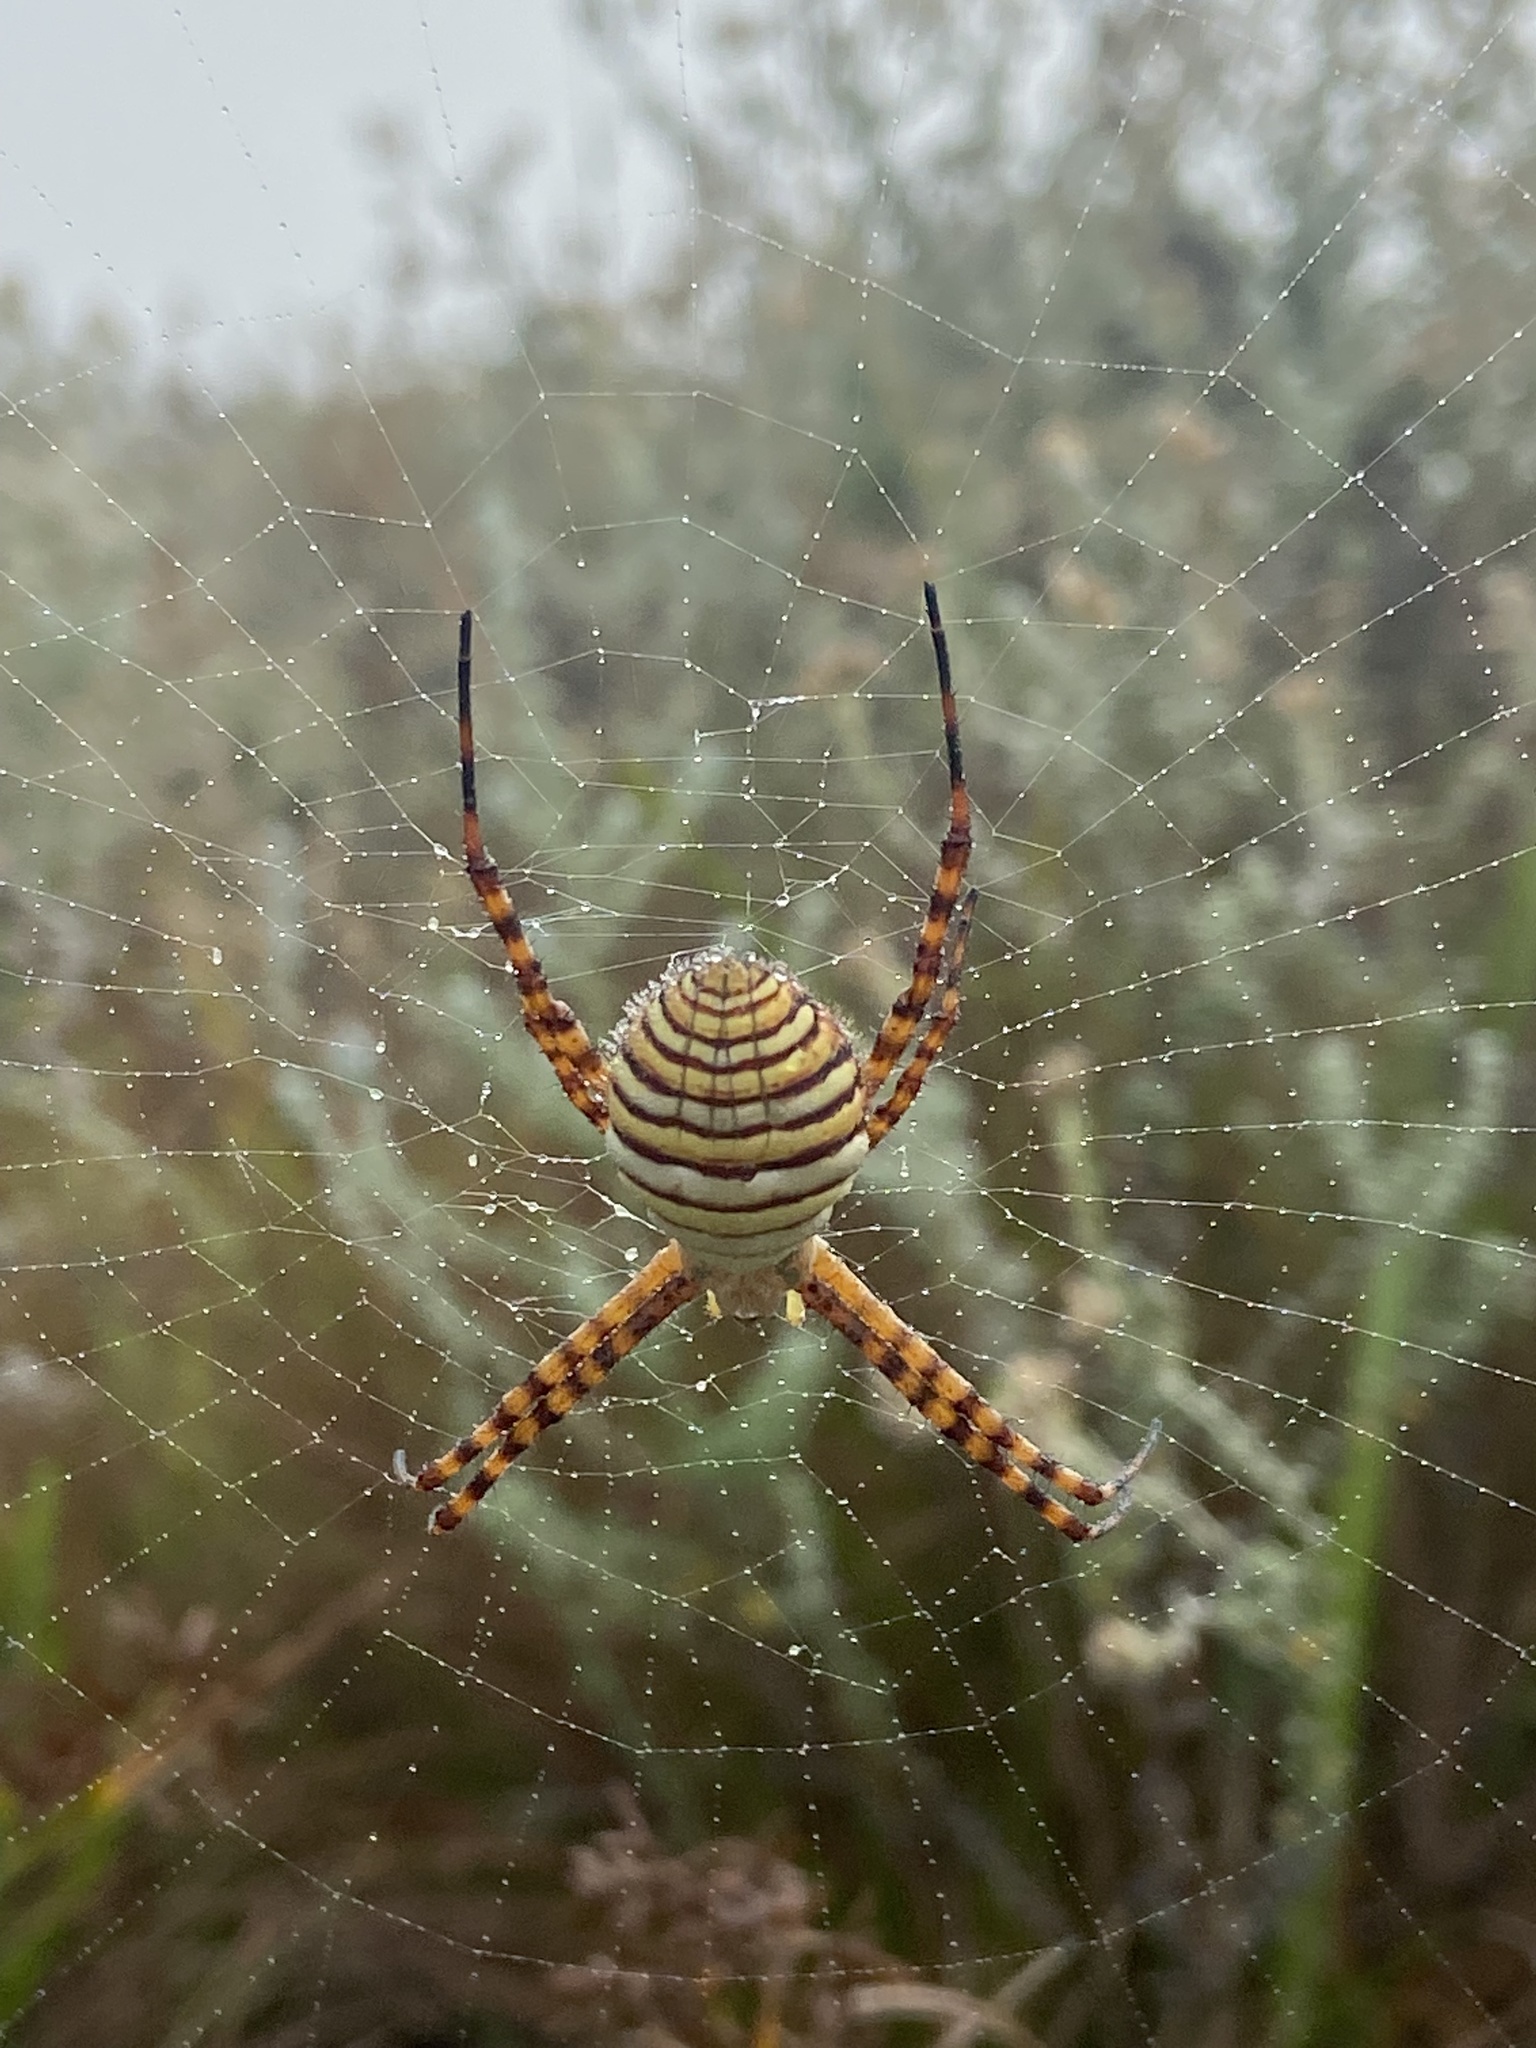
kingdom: Animalia
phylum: Arthropoda
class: Arachnida
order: Araneae
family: Araneidae
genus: Argiope
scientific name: Argiope trifasciata
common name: Banded garden spider
